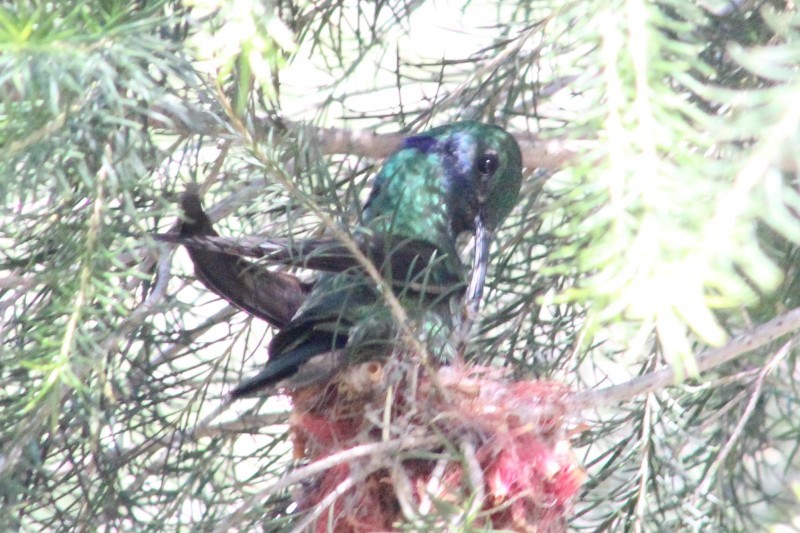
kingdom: Animalia
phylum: Chordata
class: Aves
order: Apodiformes
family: Trochilidae
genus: Colibri
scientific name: Colibri coruscans
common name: Sparkling violetear
